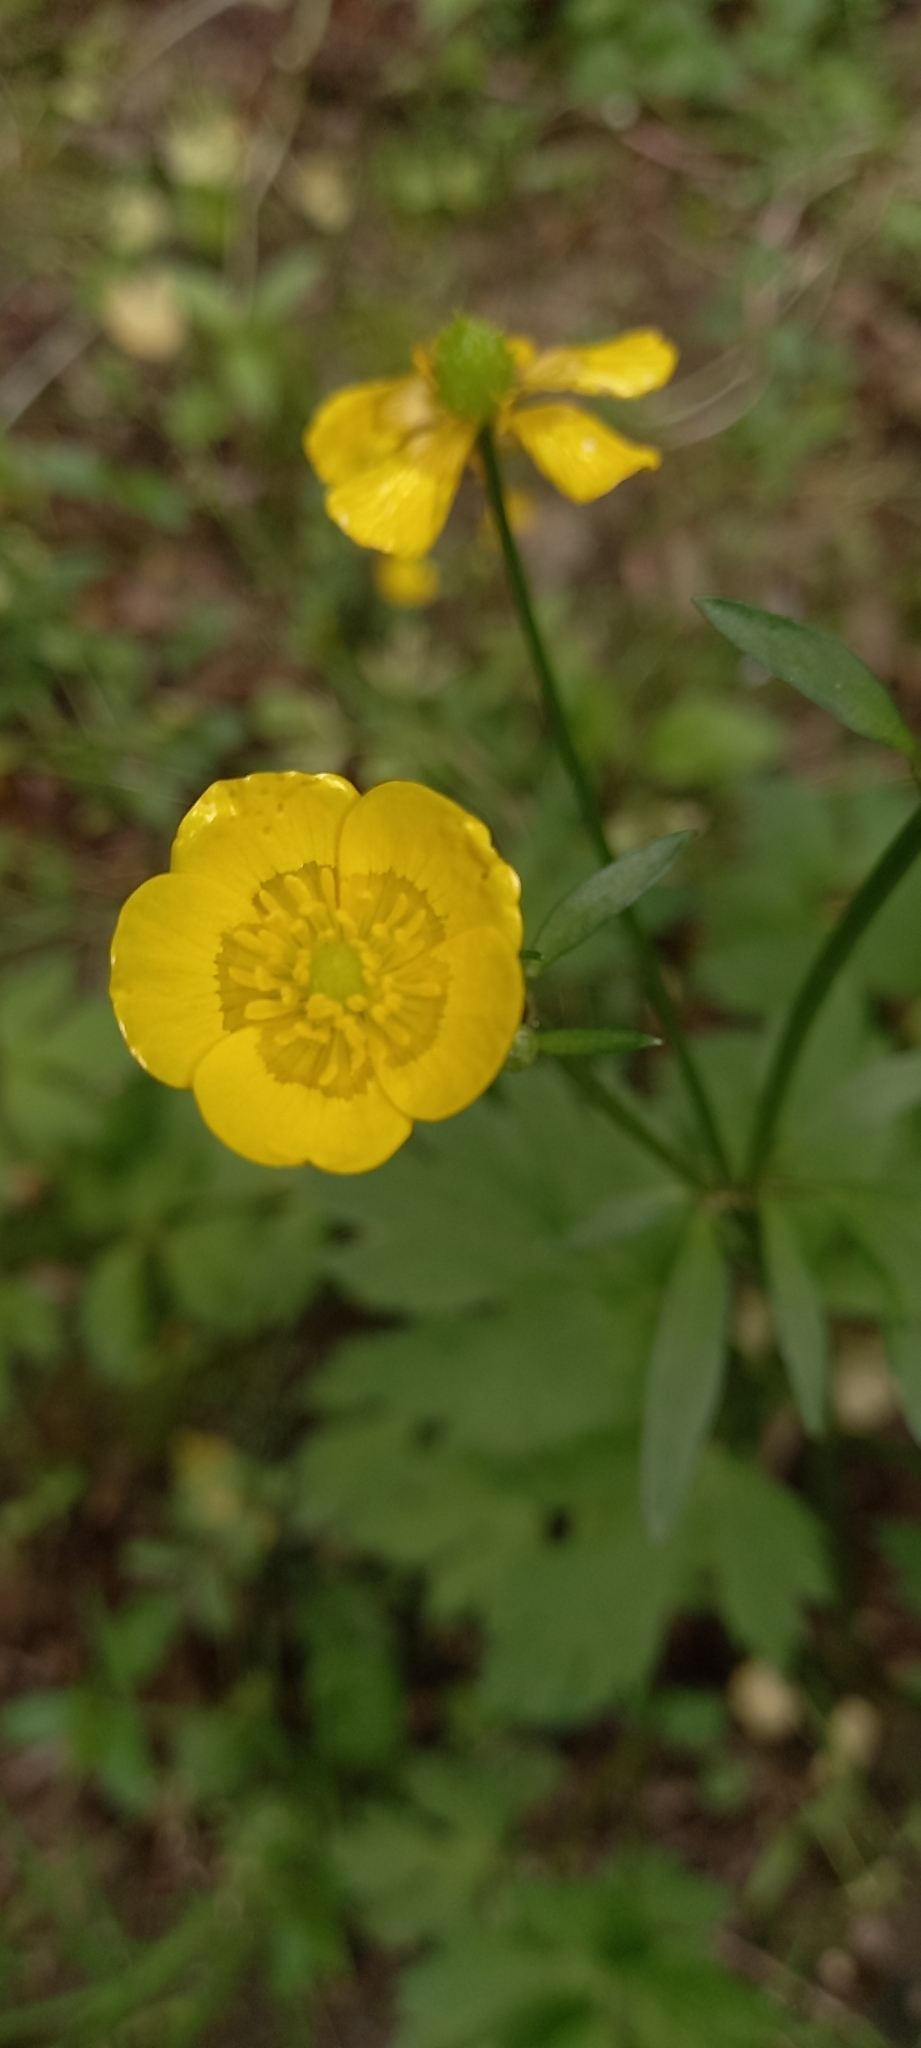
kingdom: Plantae
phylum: Tracheophyta
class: Magnoliopsida
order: Ranunculales
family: Ranunculaceae
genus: Ranunculus
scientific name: Ranunculus repens
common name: Creeping buttercup
